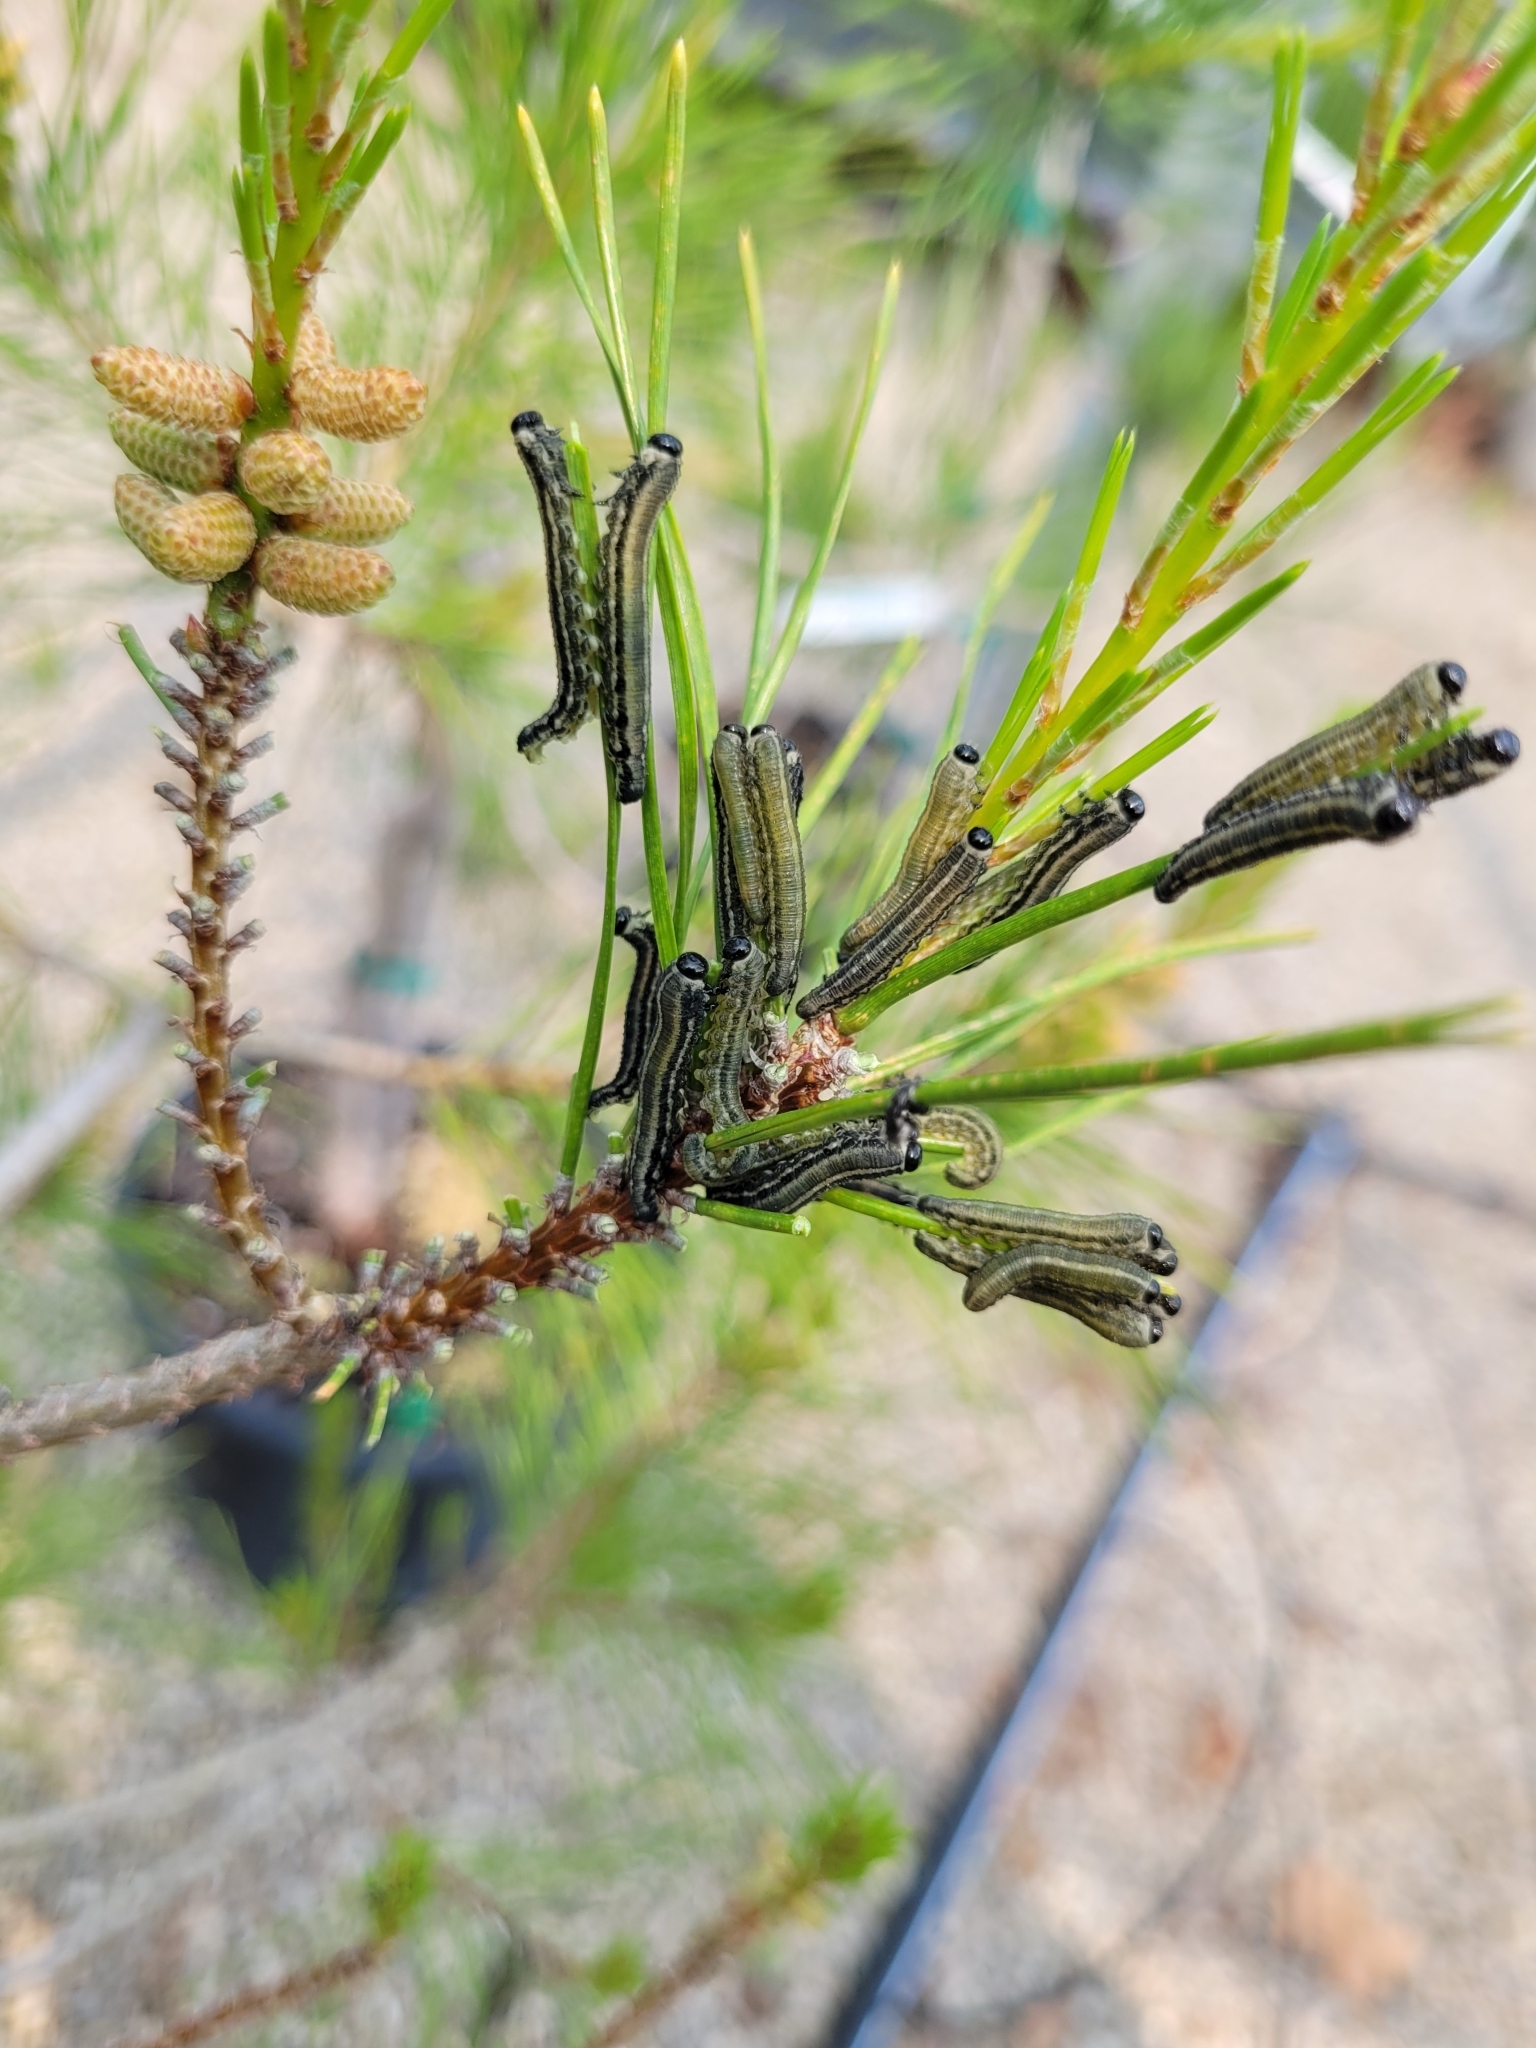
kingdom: Animalia
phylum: Arthropoda
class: Insecta
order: Hymenoptera
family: Diprionidae
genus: Neodiprion
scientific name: Neodiprion sertifer
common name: European pine sawfly
